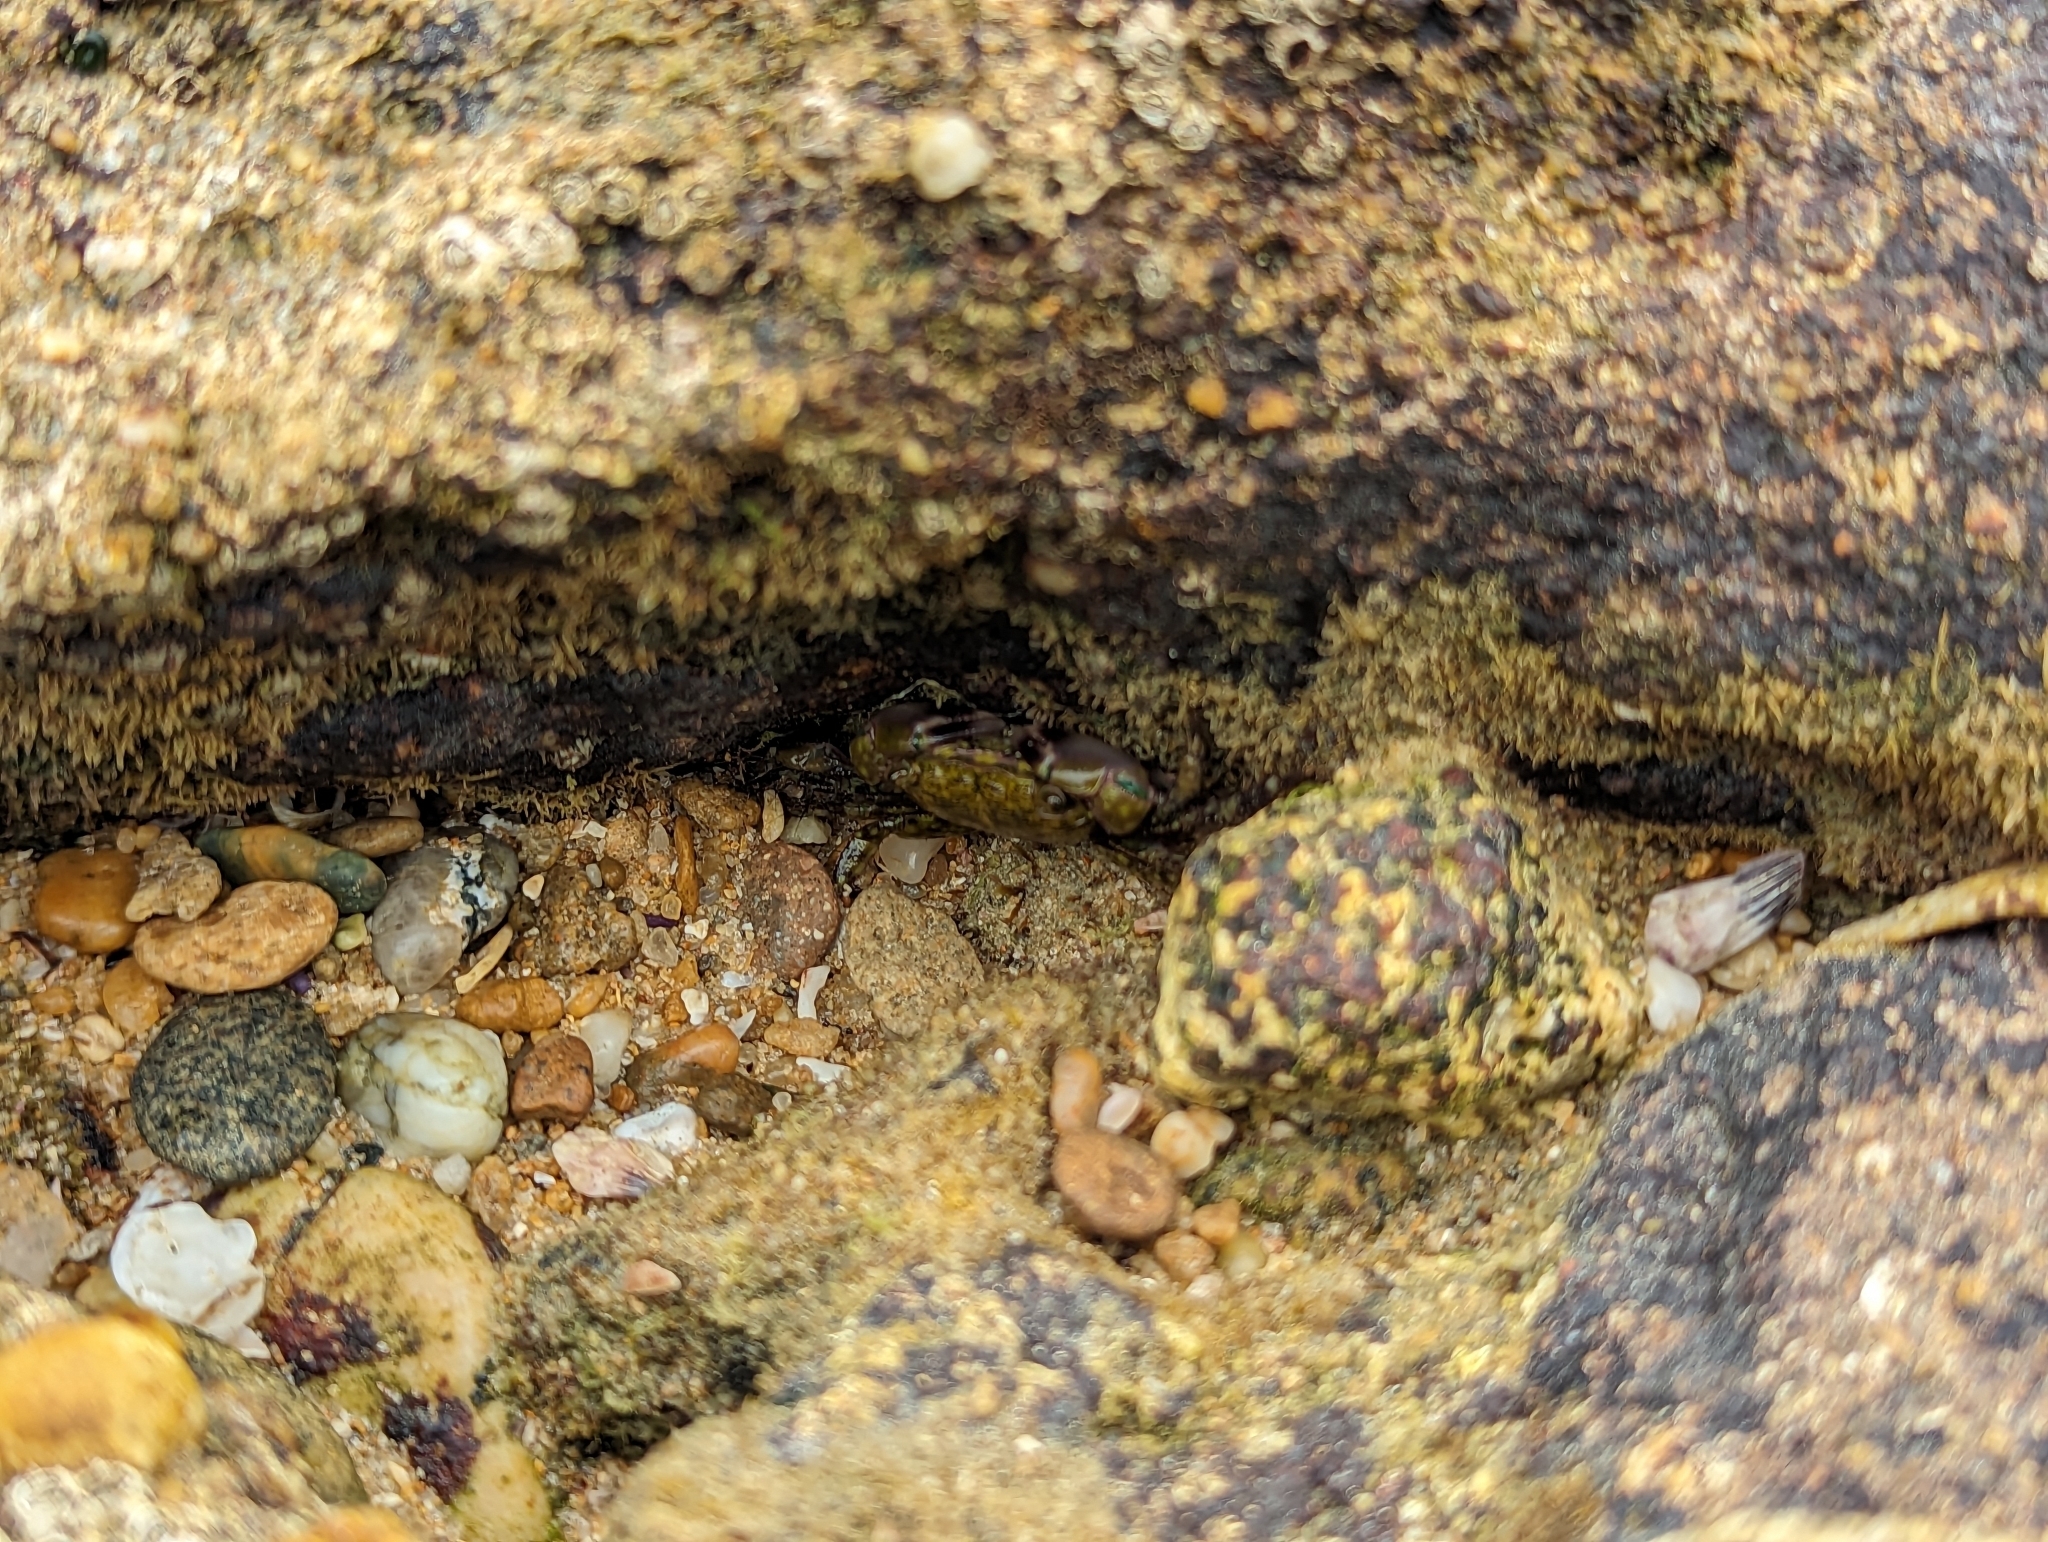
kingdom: Animalia
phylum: Arthropoda
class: Malacostraca
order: Decapoda
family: Grapsidae
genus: Pachygrapsus
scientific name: Pachygrapsus transversus
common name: Mottled shore crab
